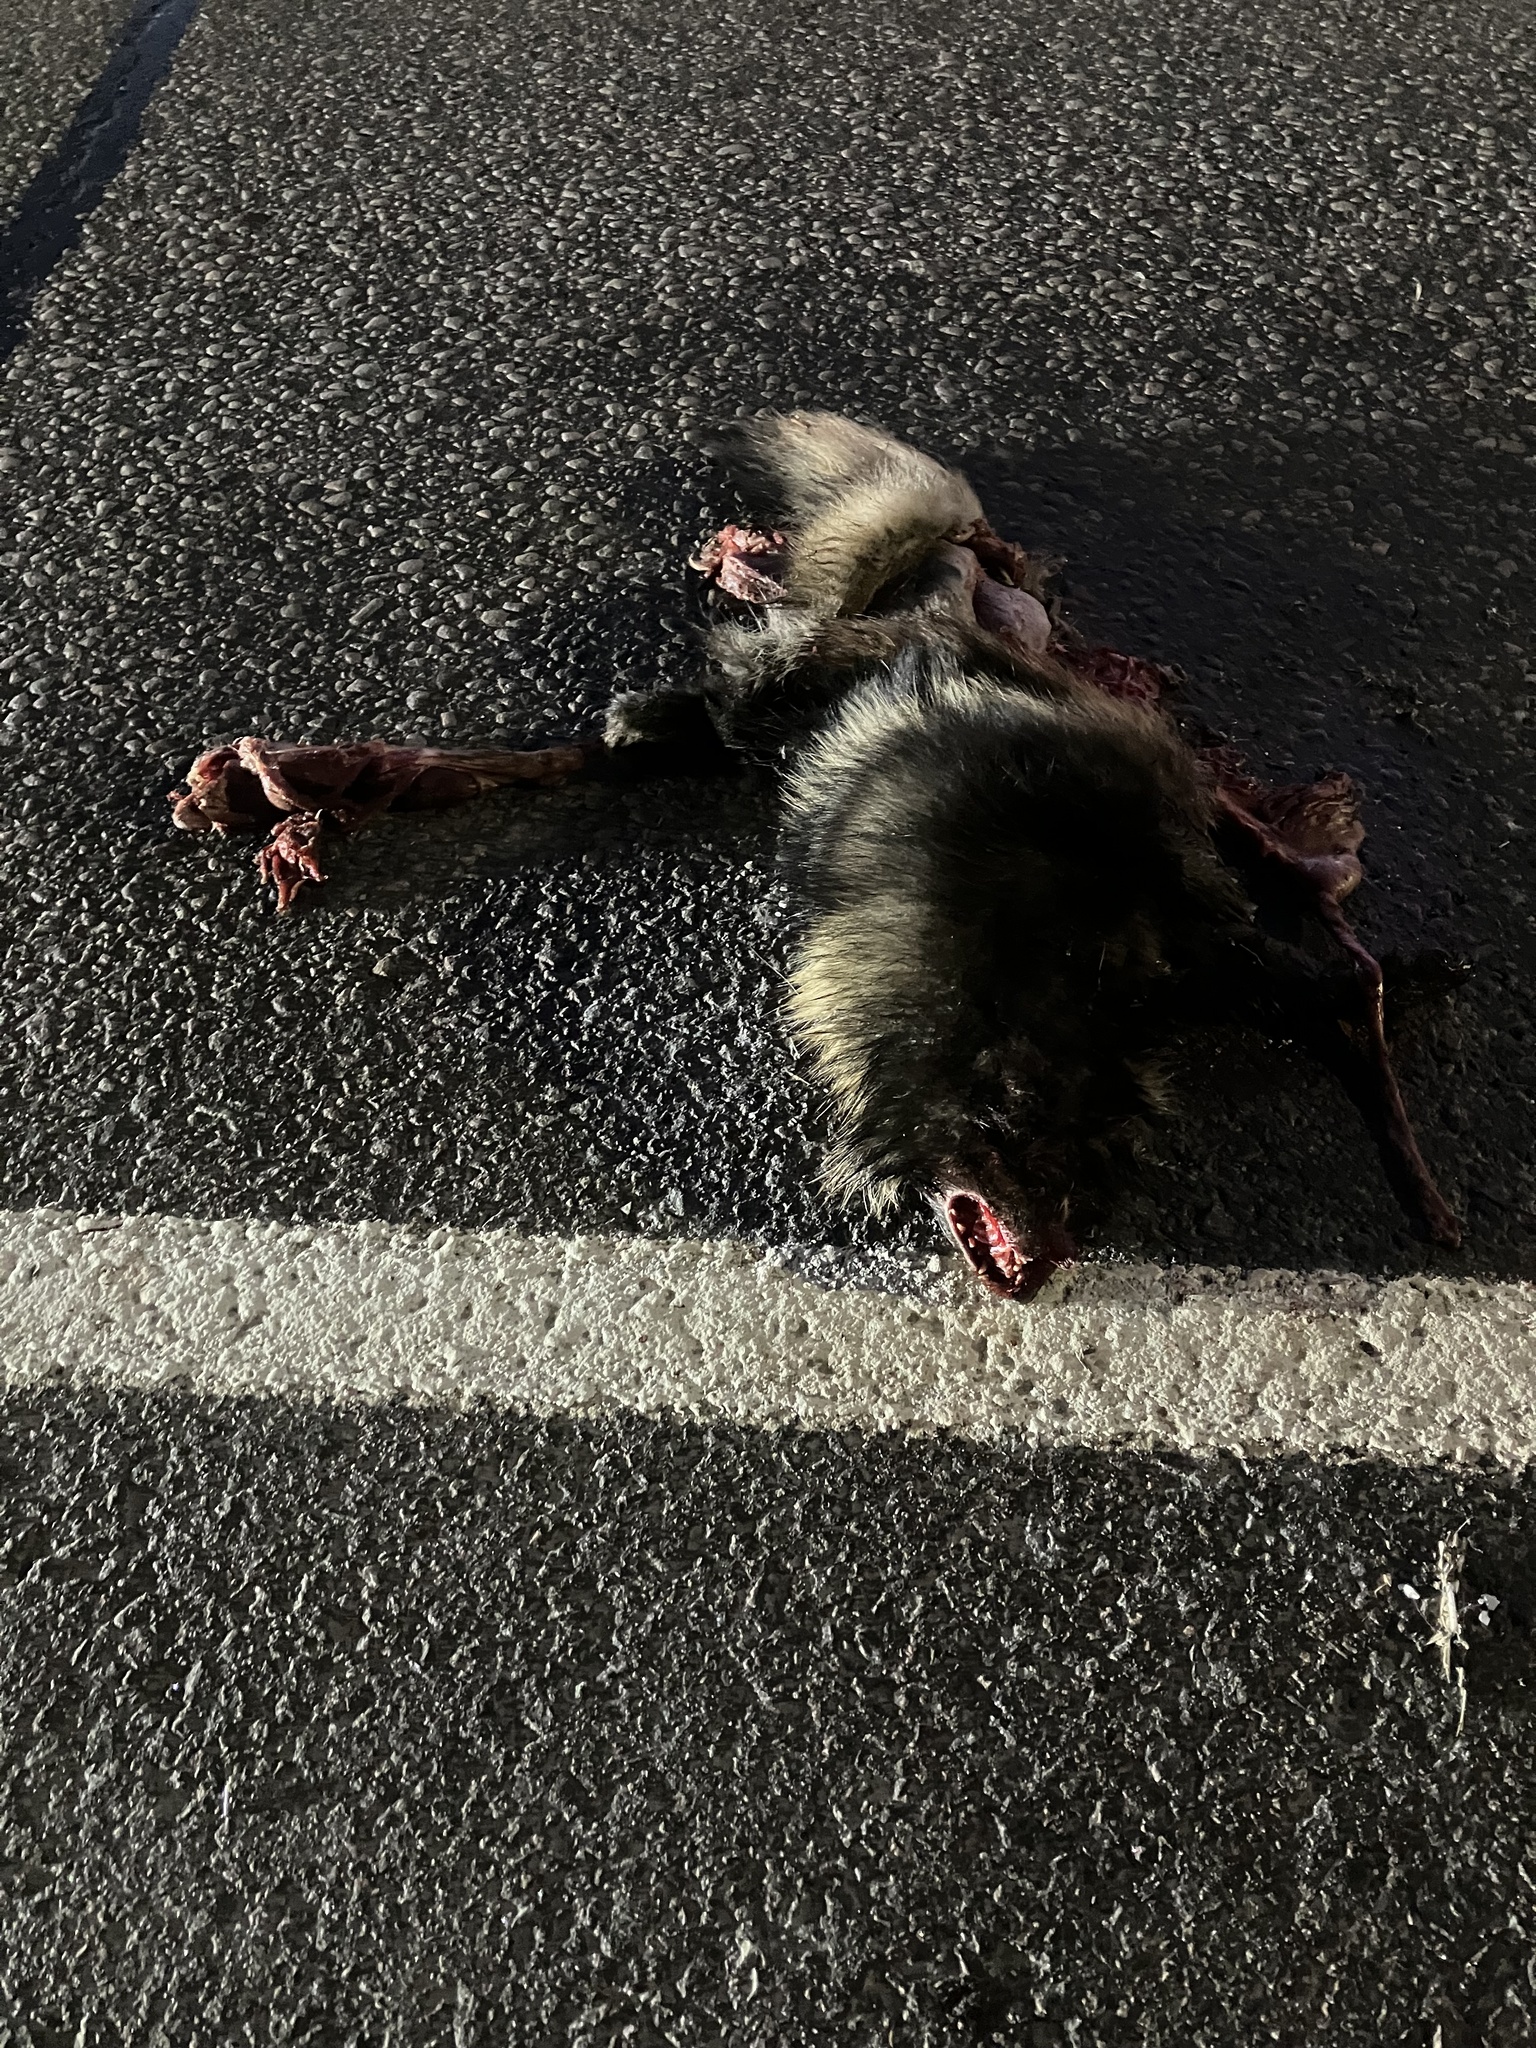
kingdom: Animalia
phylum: Chordata
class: Mammalia
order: Carnivora
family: Canidae
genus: Nyctereutes
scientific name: Nyctereutes procyonoides
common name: Raccoon dog
